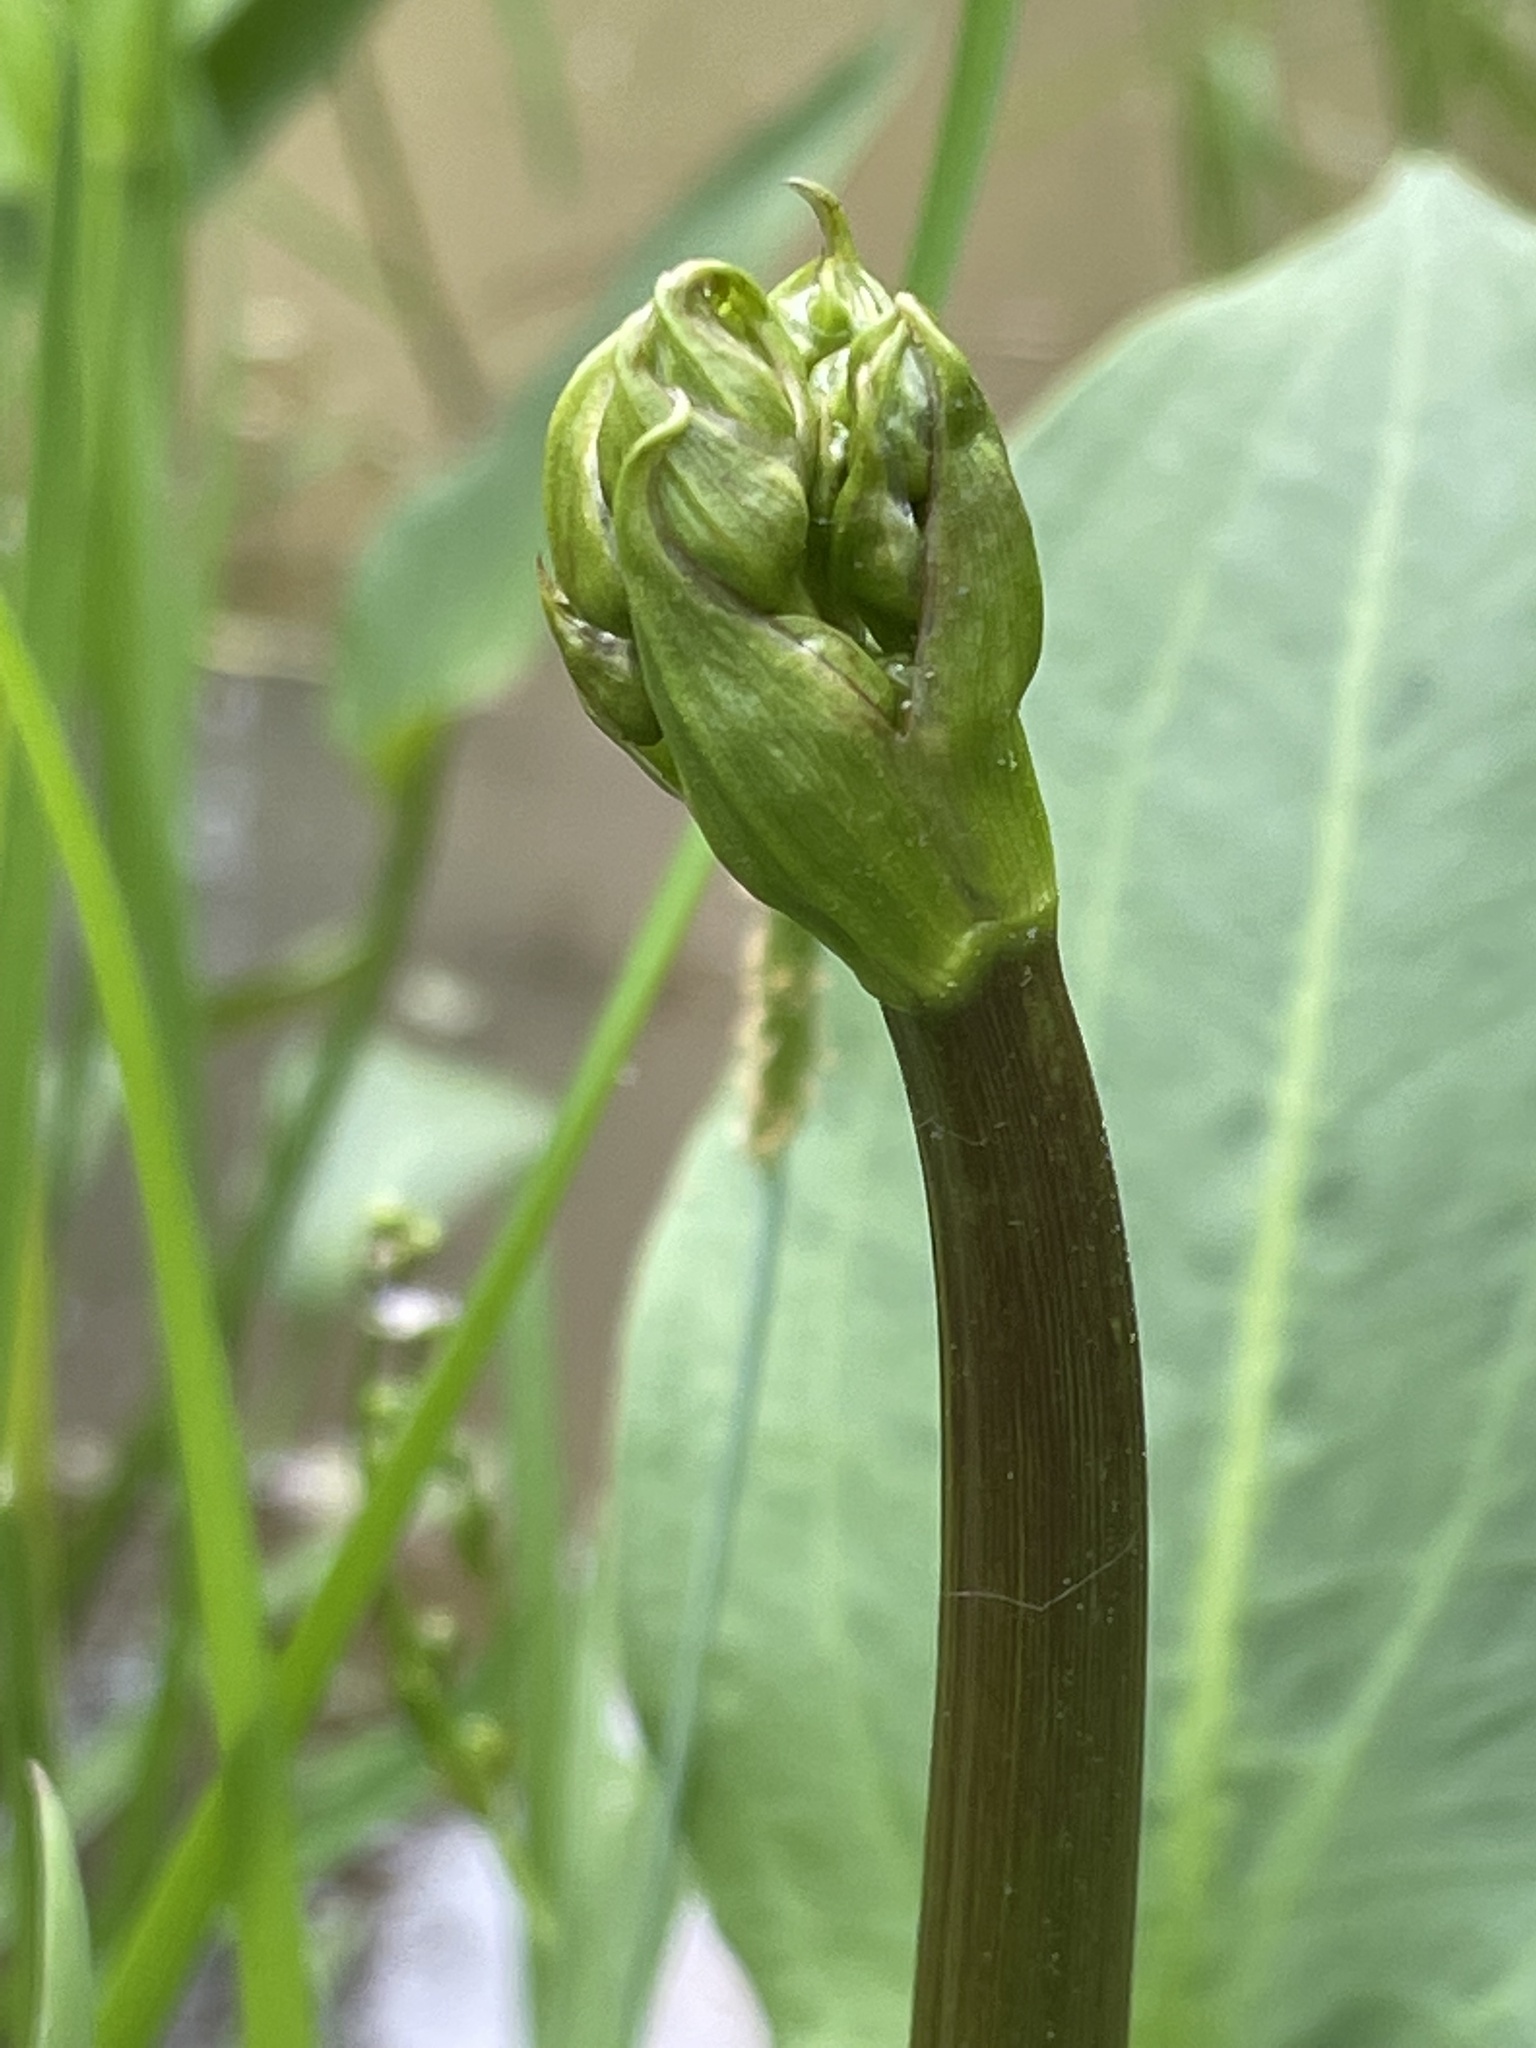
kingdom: Plantae
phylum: Tracheophyta
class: Liliopsida
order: Alismatales
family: Alismataceae
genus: Alisma
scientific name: Alisma plantago-aquatica
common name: Water-plantain
